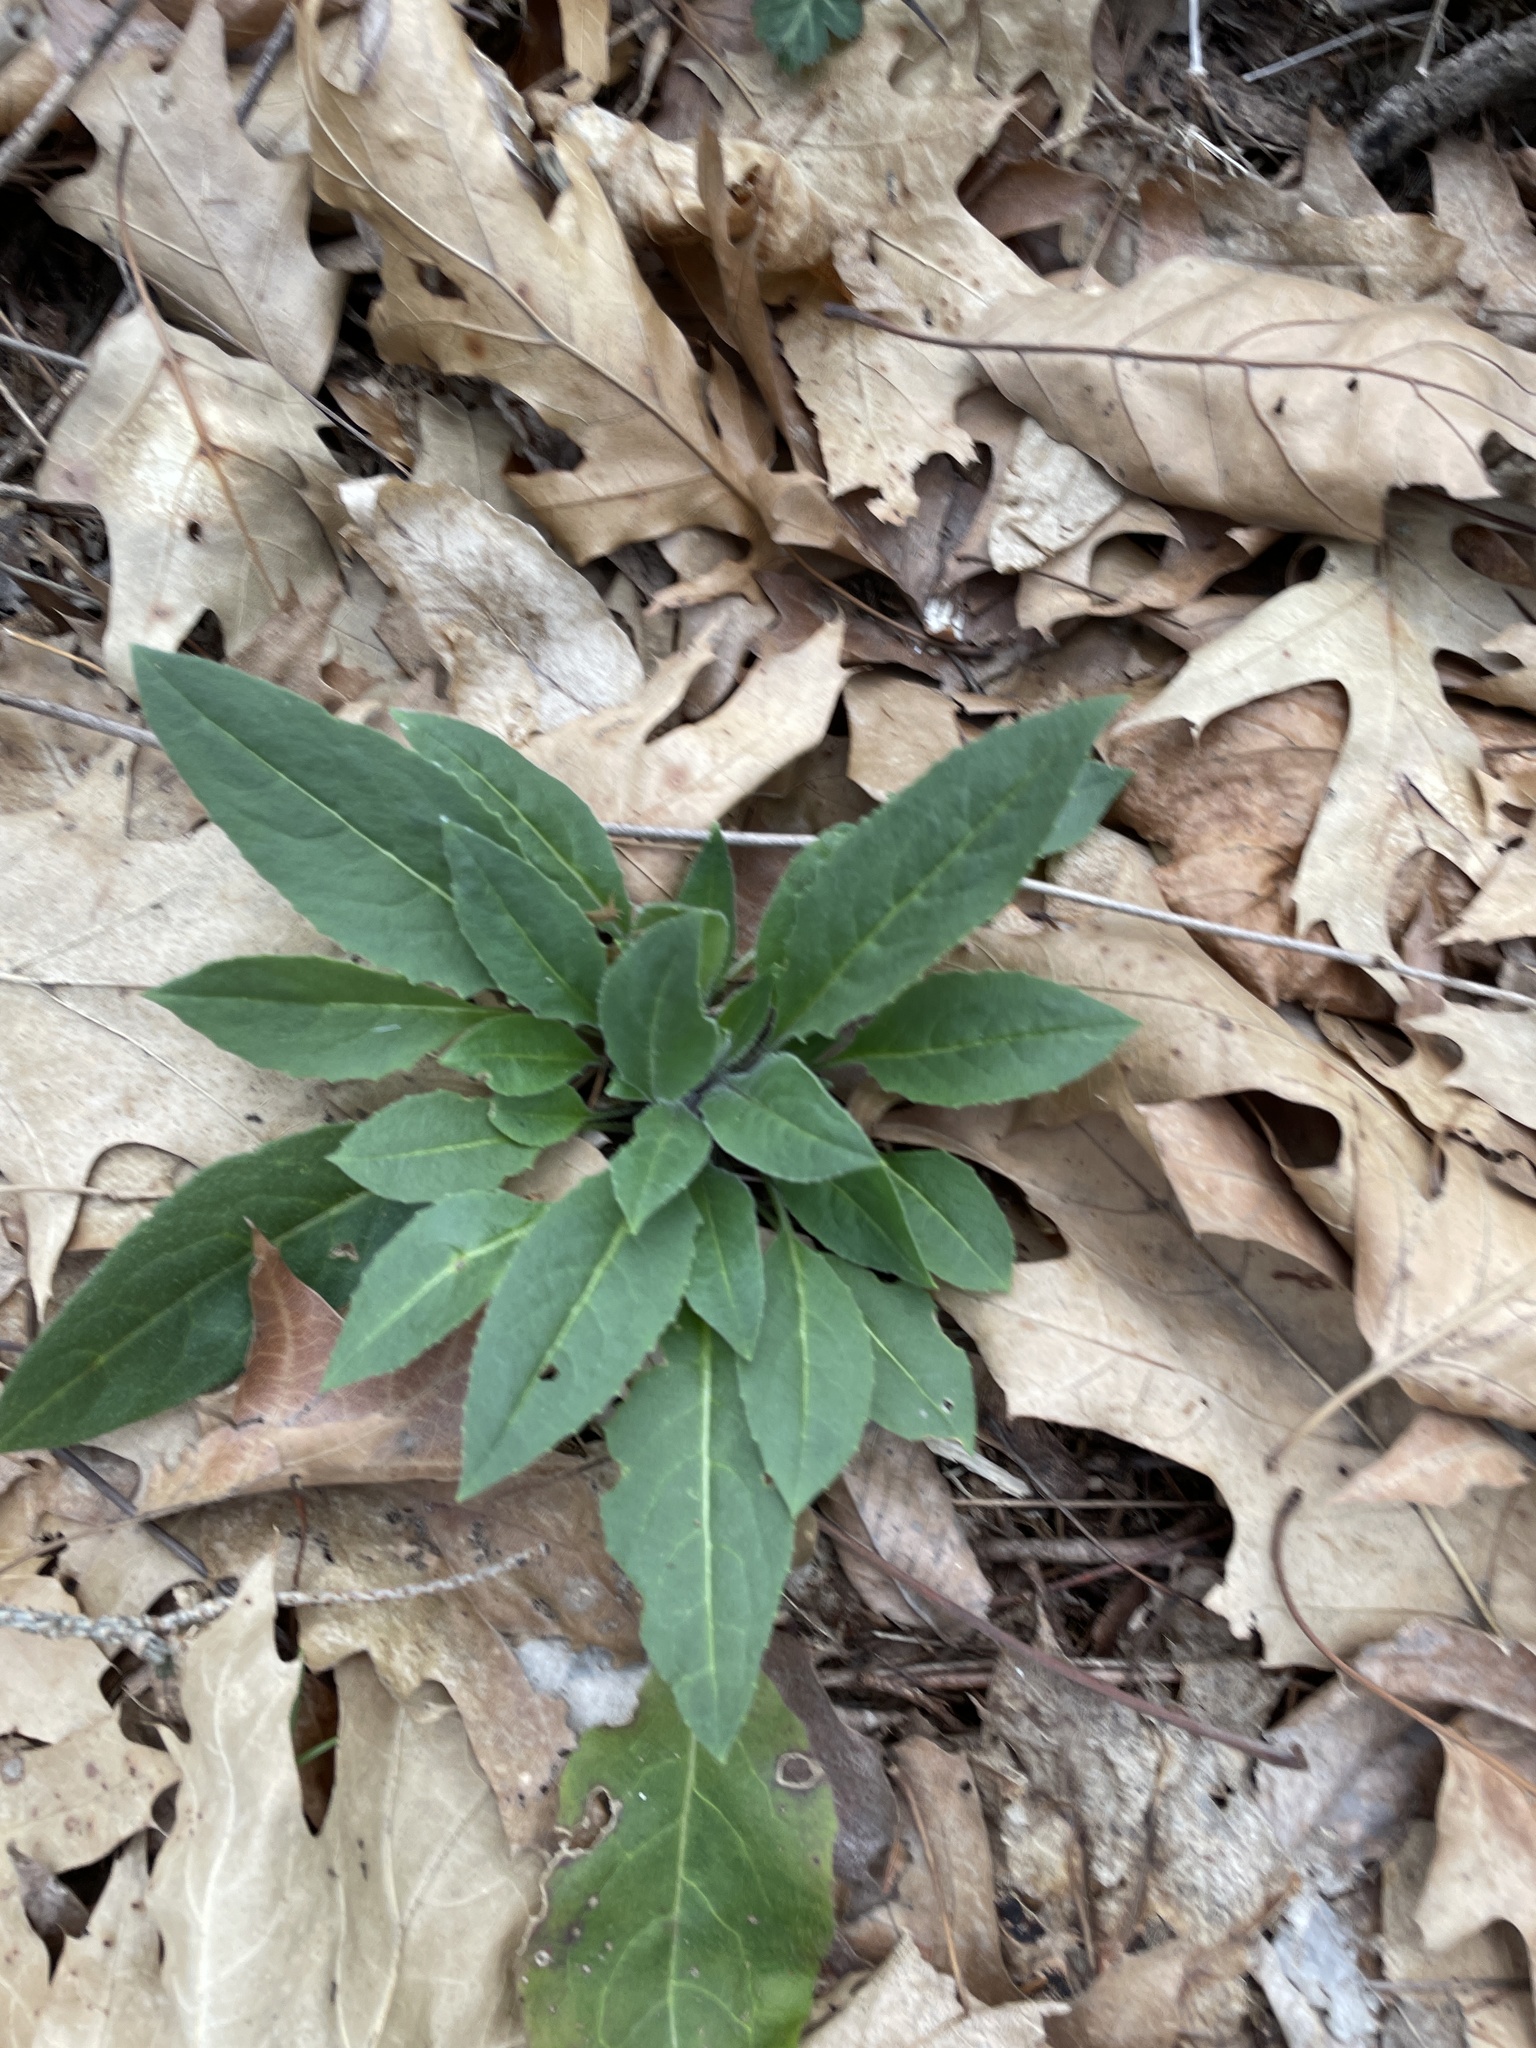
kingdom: Plantae
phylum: Tracheophyta
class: Magnoliopsida
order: Brassicales
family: Brassicaceae
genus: Hesperis
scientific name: Hesperis matronalis
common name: Dame's-violet
